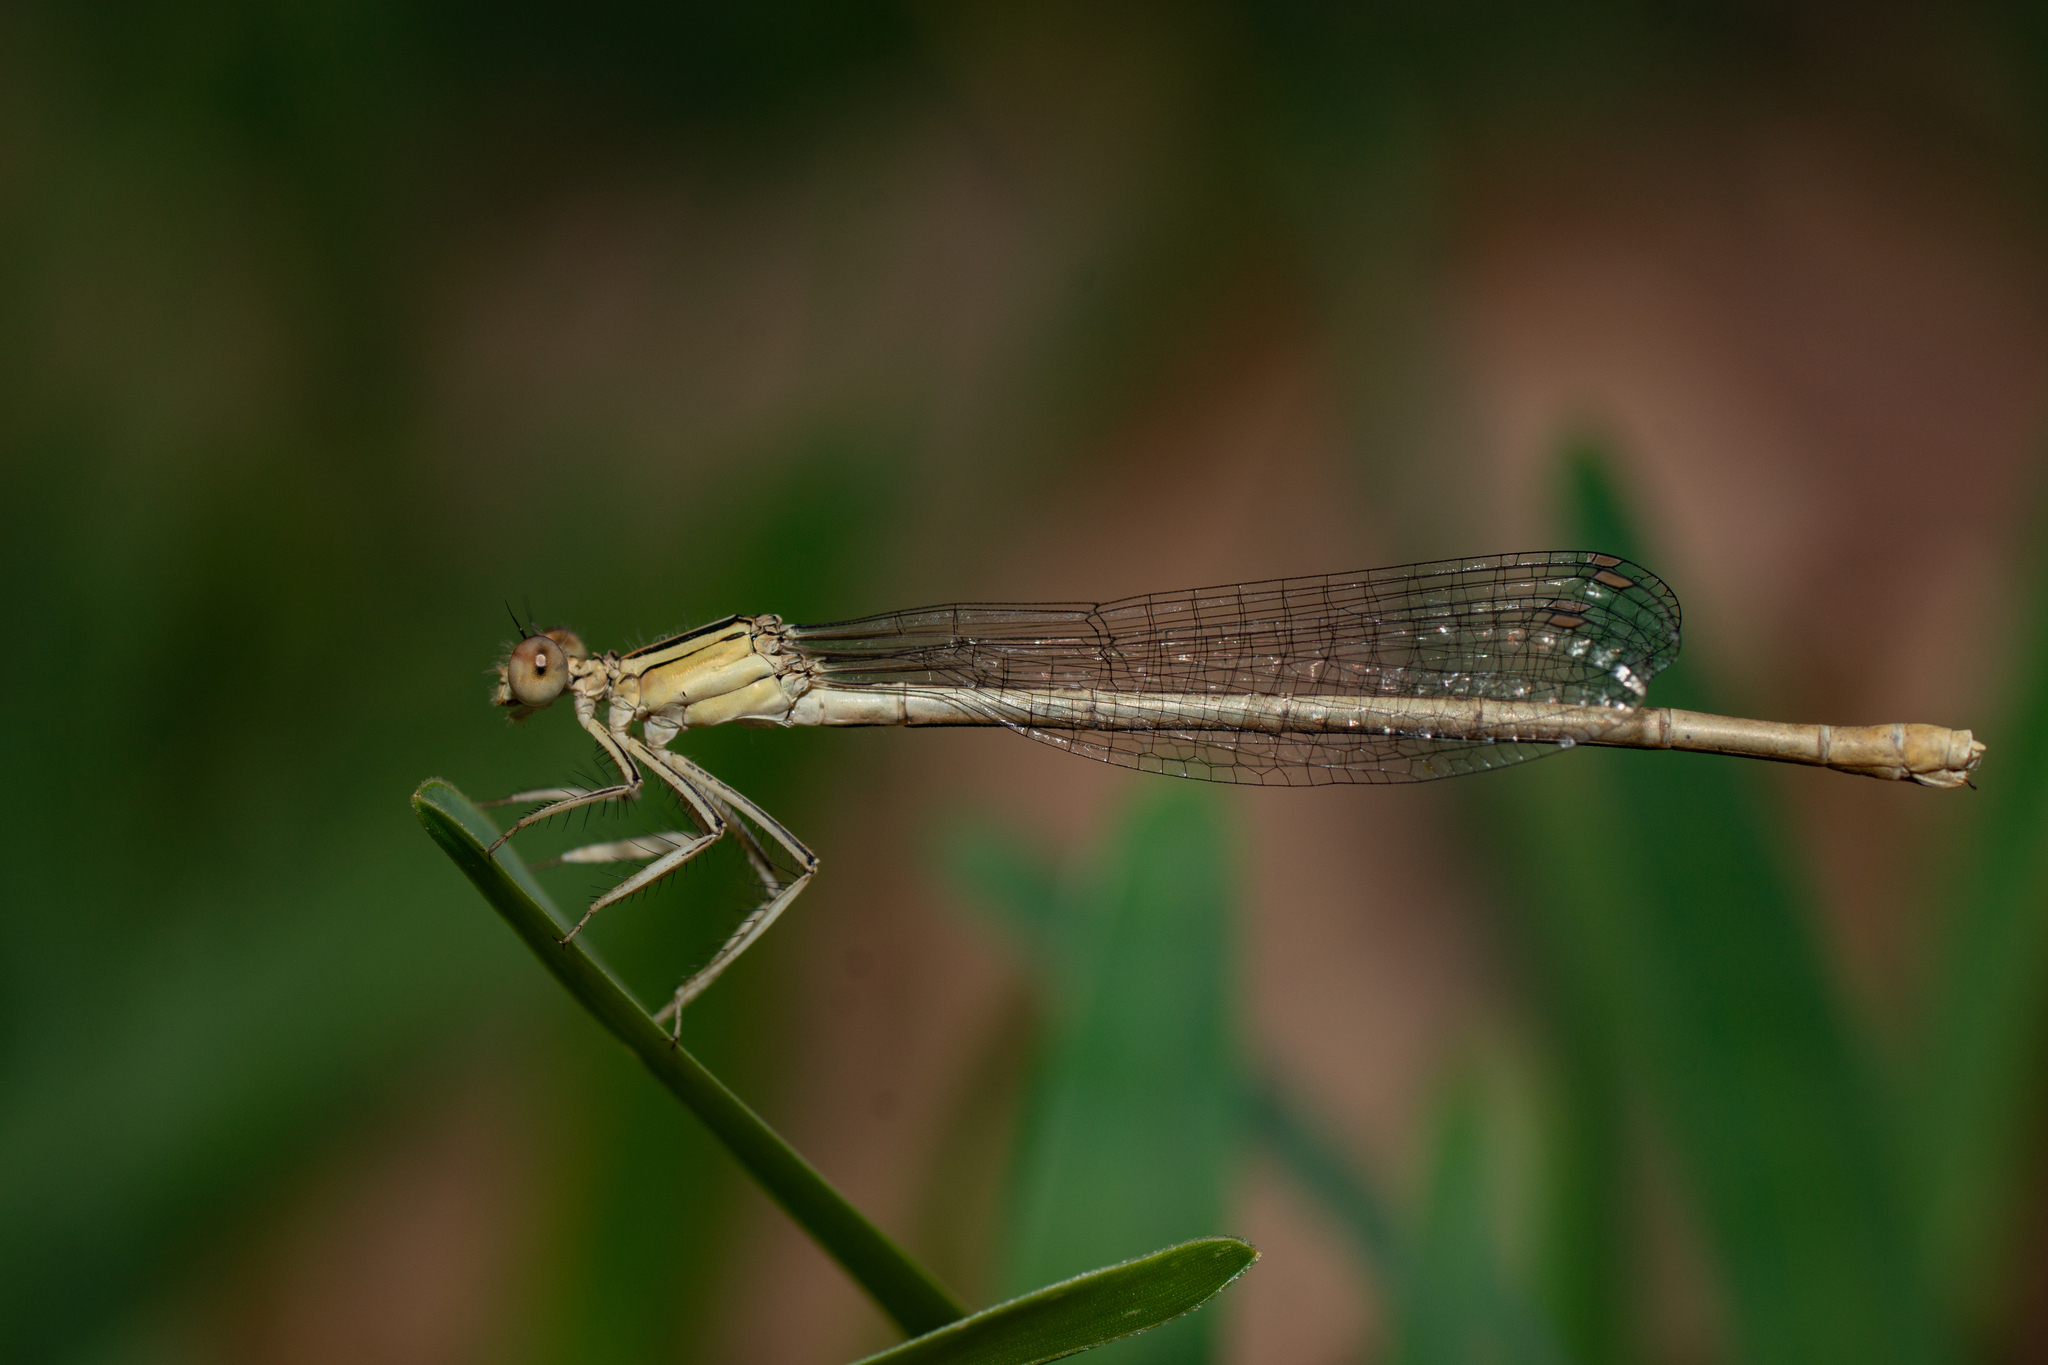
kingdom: Animalia
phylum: Arthropoda
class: Insecta
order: Odonata
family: Platycnemididae
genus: Platycnemis
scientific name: Platycnemis latipes
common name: White featherleg
